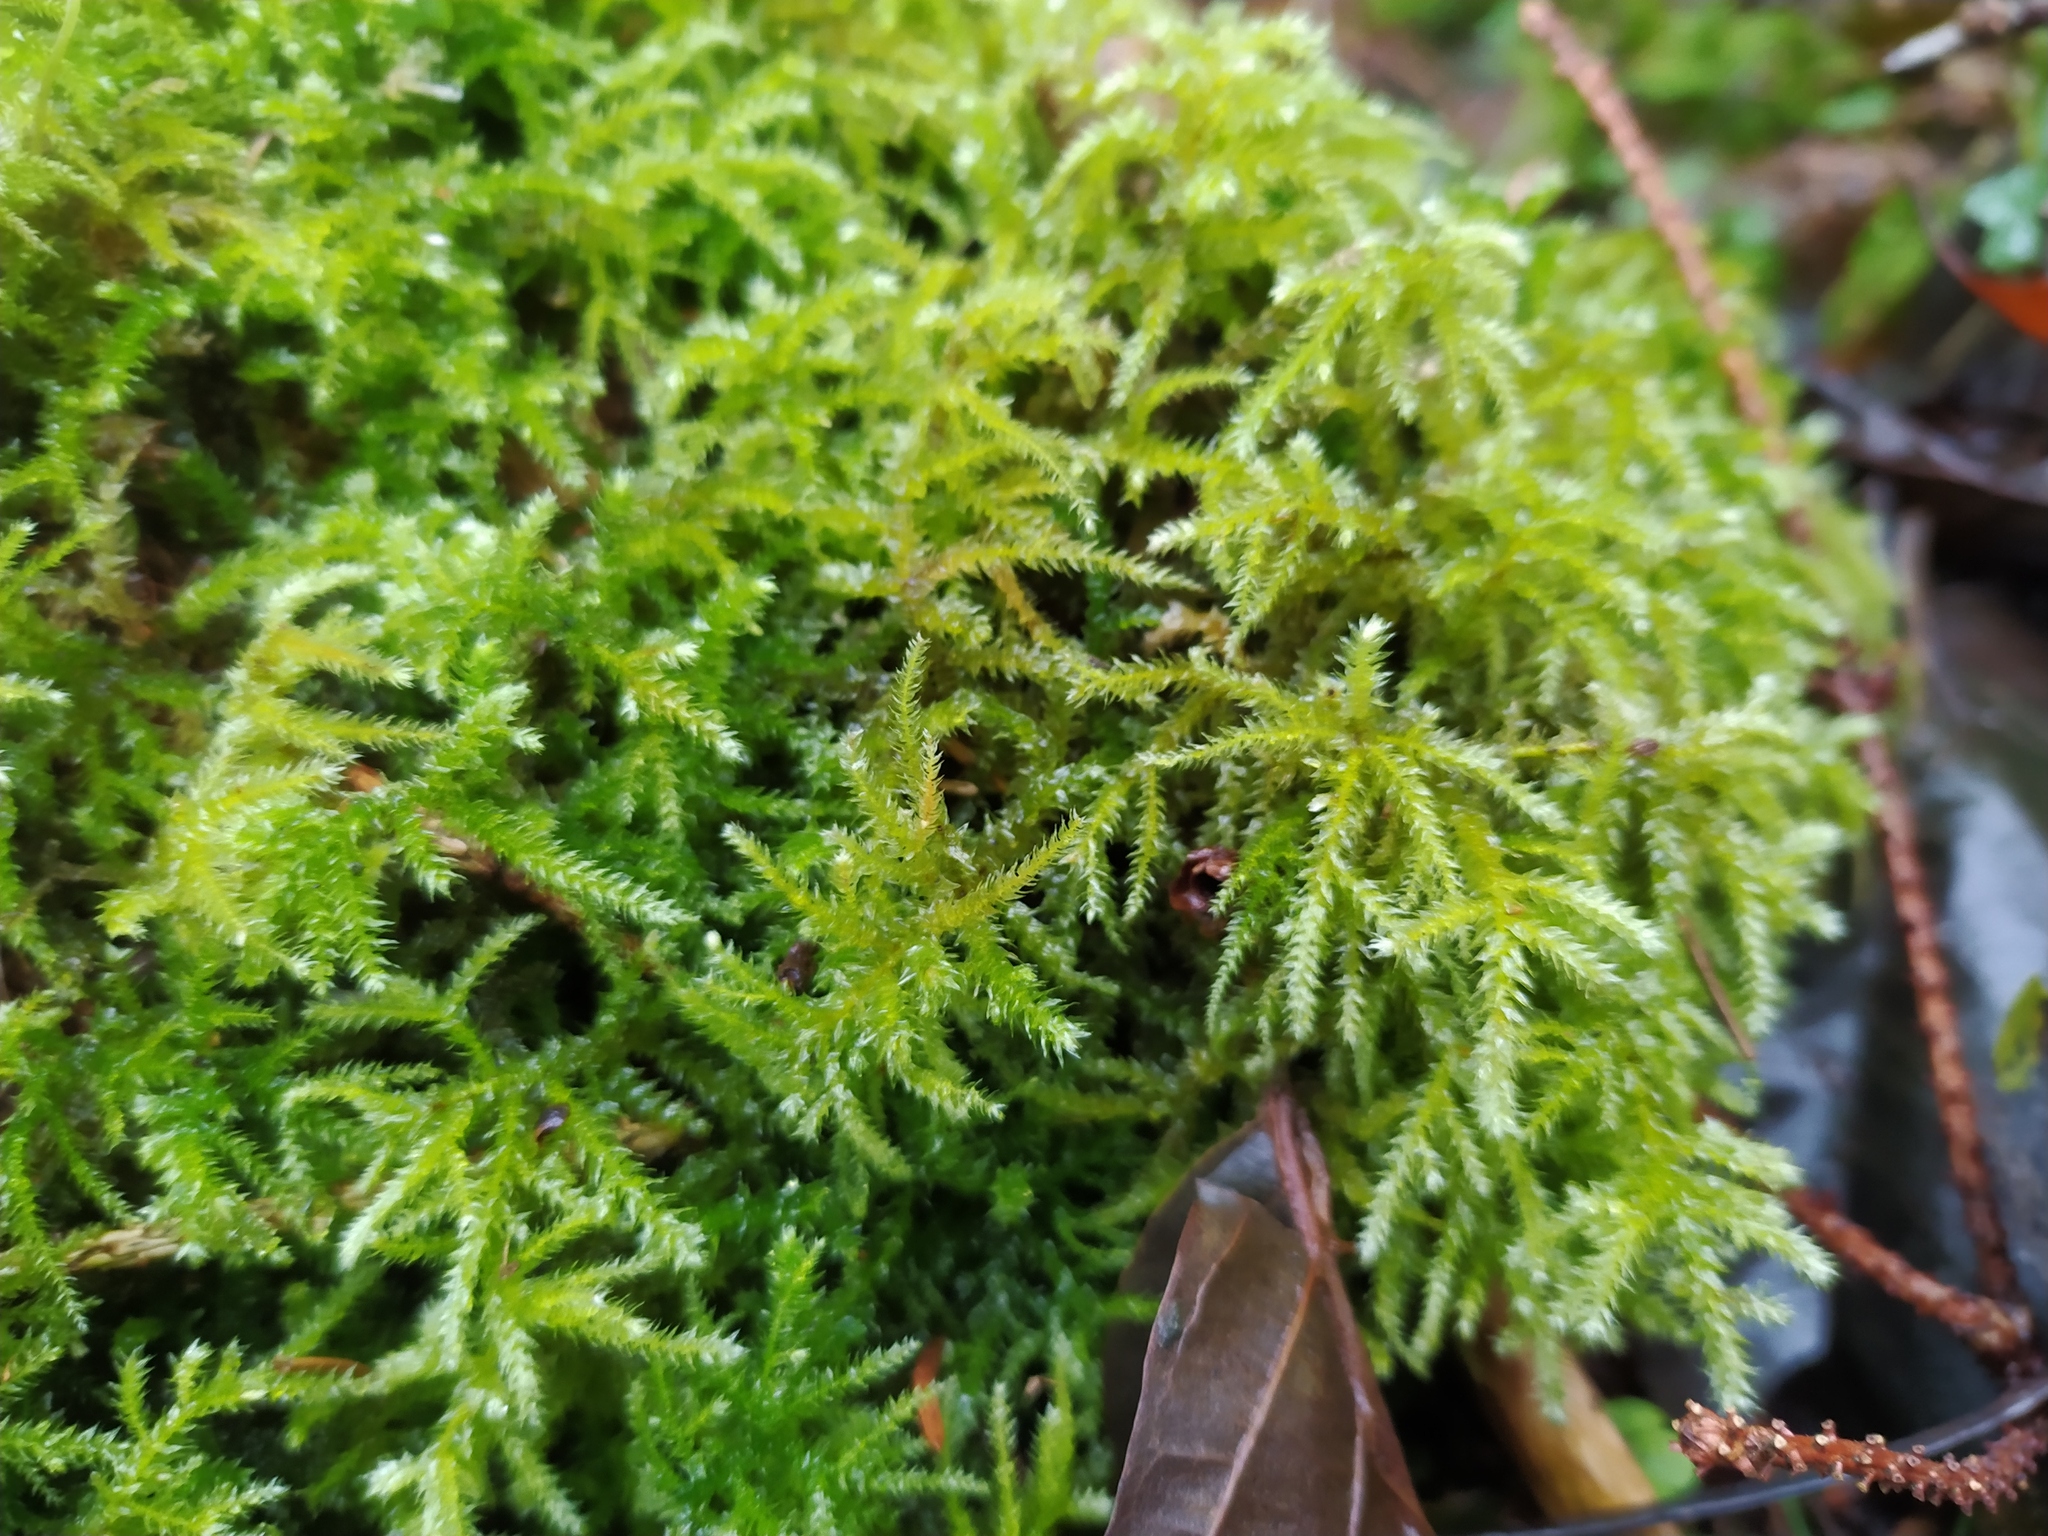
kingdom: Plantae
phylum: Bryophyta
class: Bryopsida
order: Hypnales
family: Brachytheciaceae
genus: Eurhynchium
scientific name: Eurhynchium striatum
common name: Common striated feather-moss
